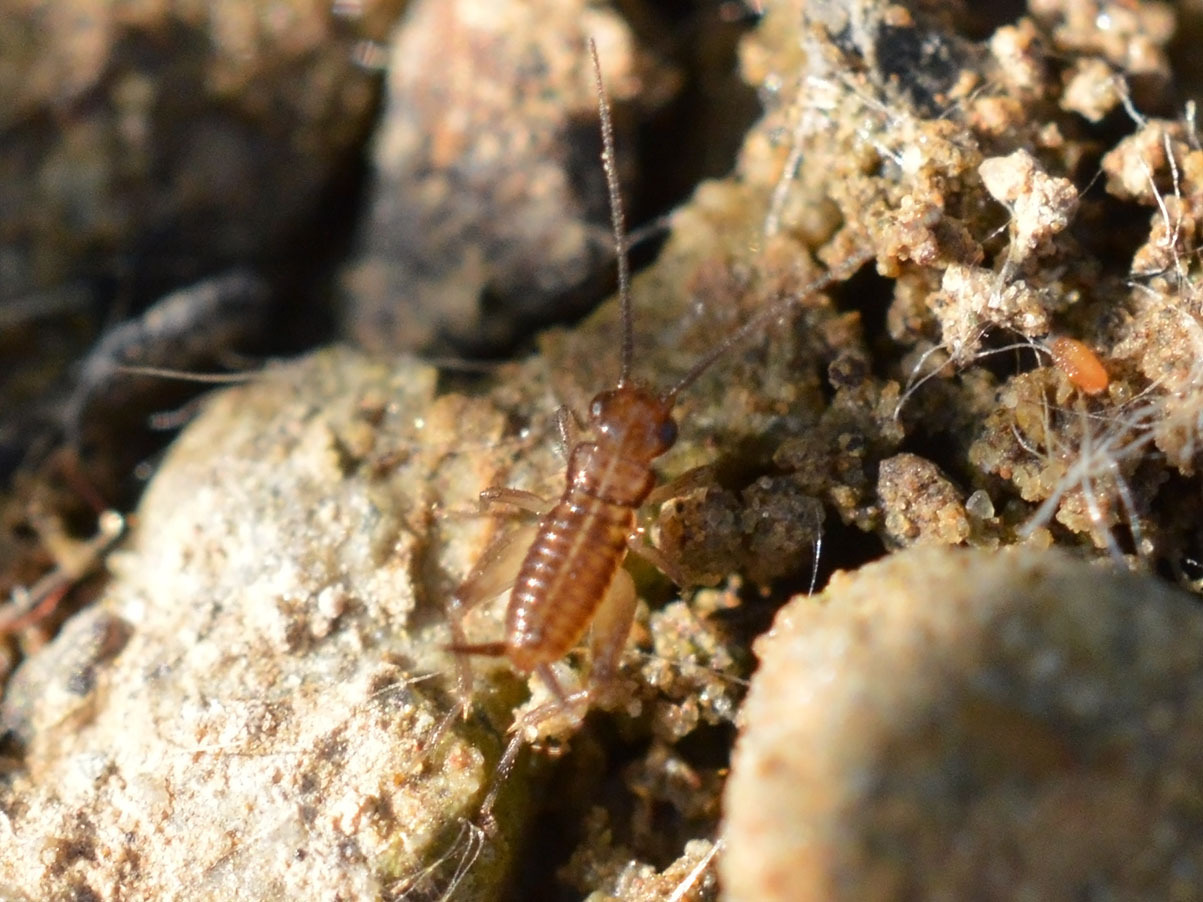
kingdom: Animalia
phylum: Arthropoda
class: Insecta
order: Orthoptera
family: Trigonidiidae
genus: Pteronemobius
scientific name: Pteronemobius heydenii
